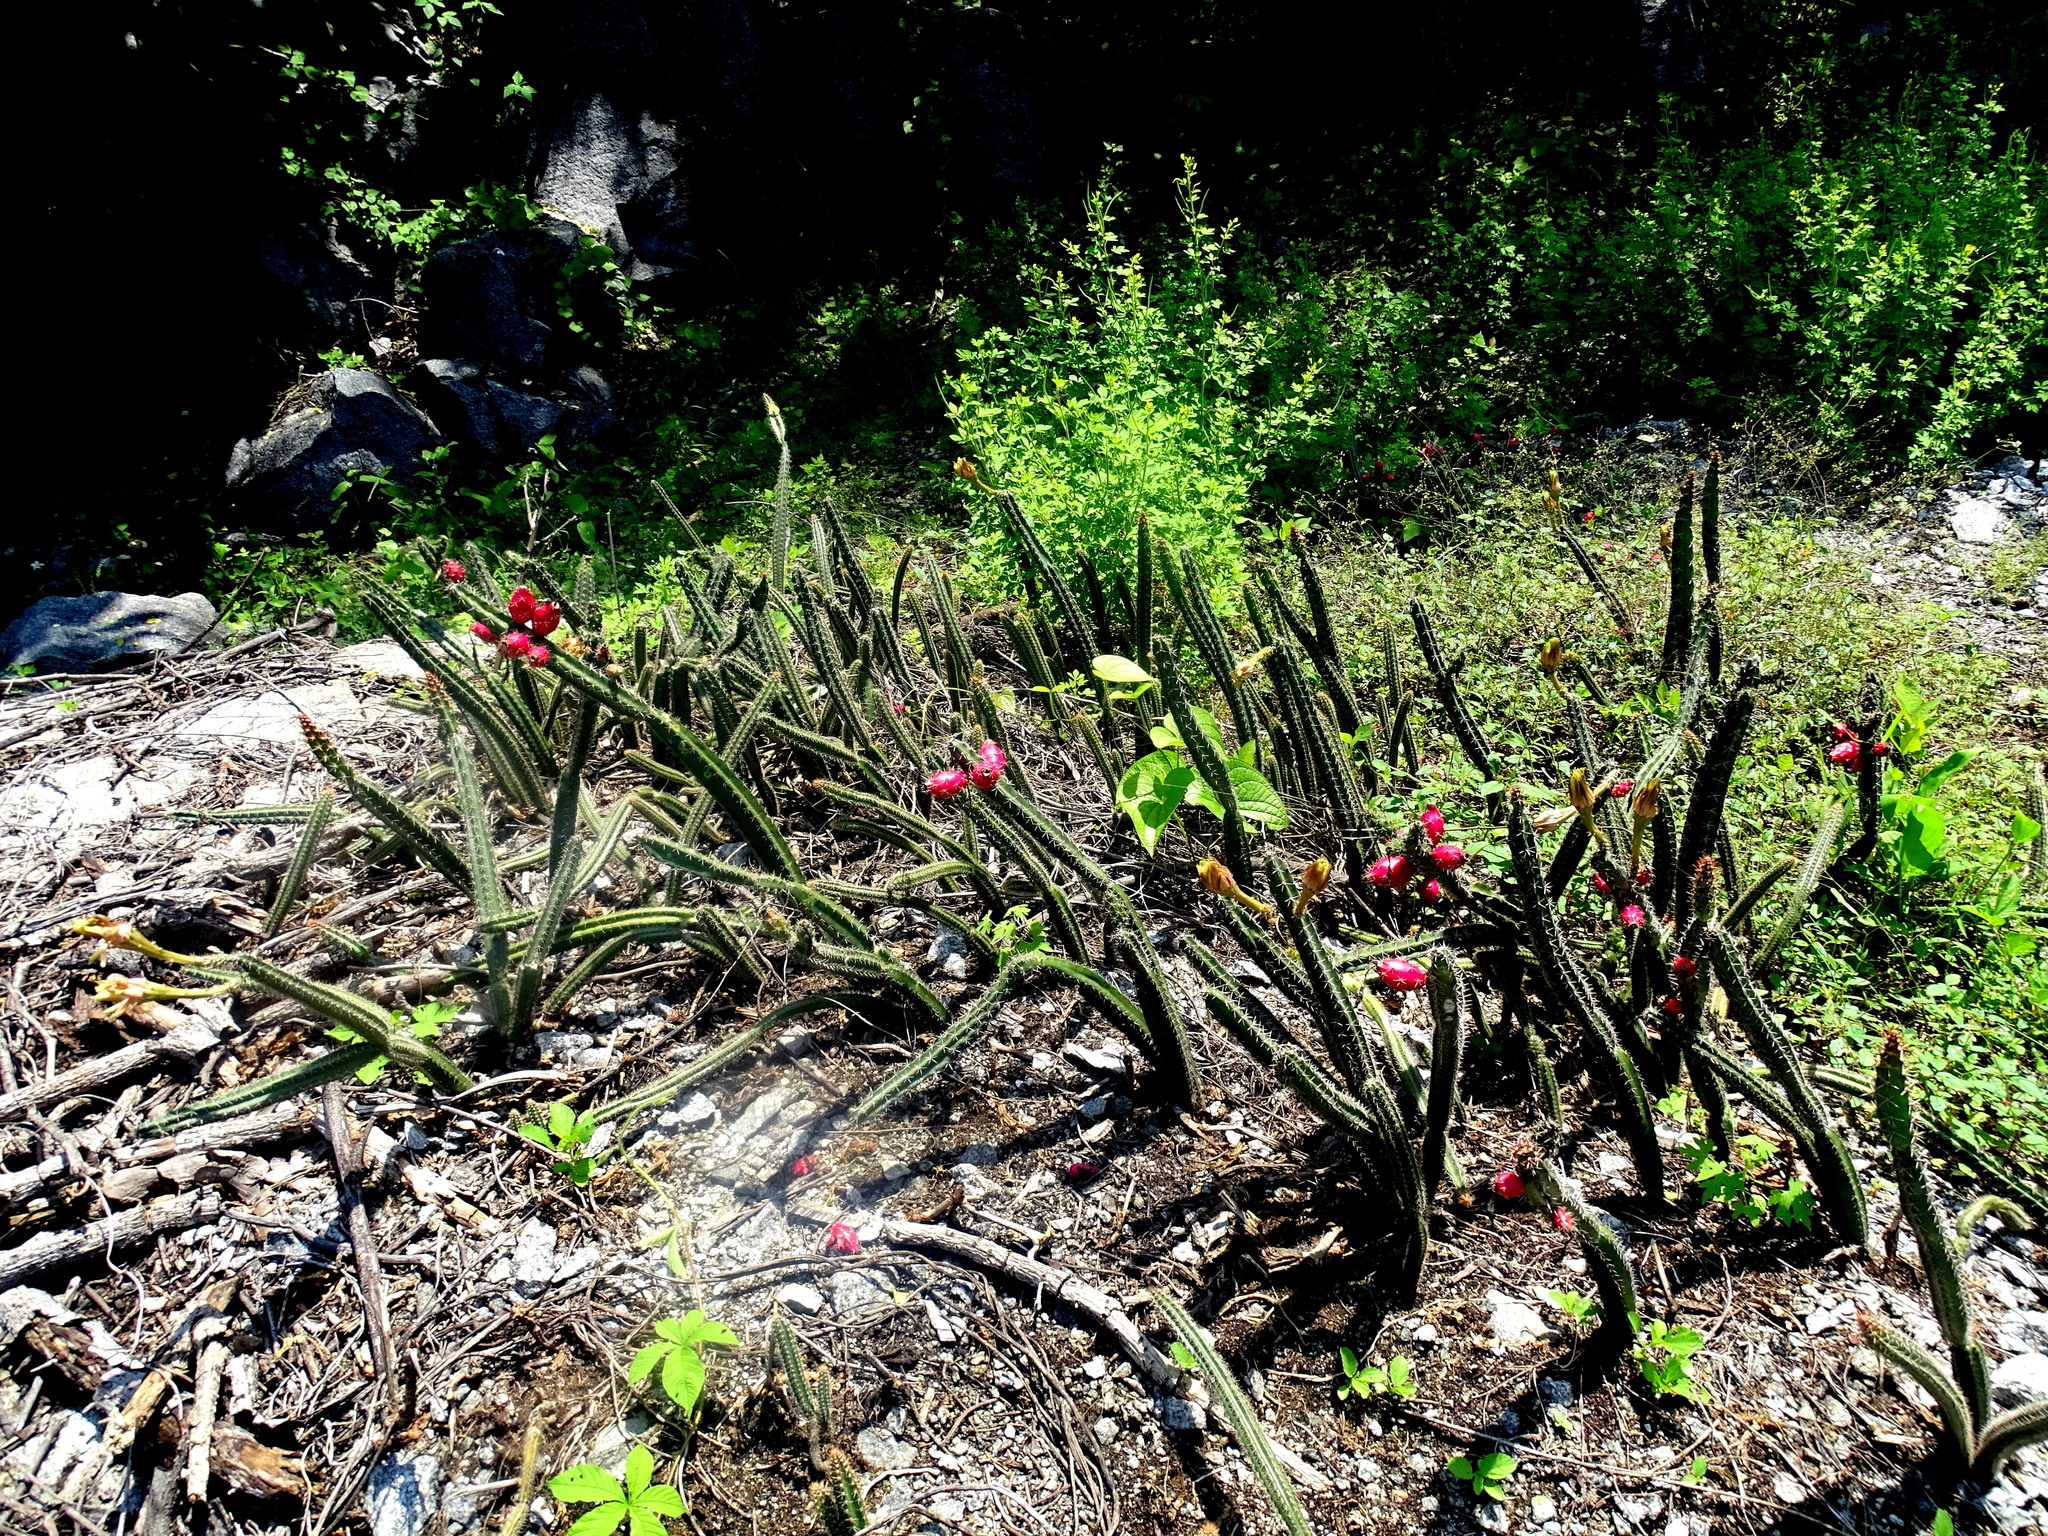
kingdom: Plantae
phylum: Tracheophyta
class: Magnoliopsida
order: Caryophyllales
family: Cactaceae
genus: Acanthocereus
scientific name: Acanthocereus hesperius
